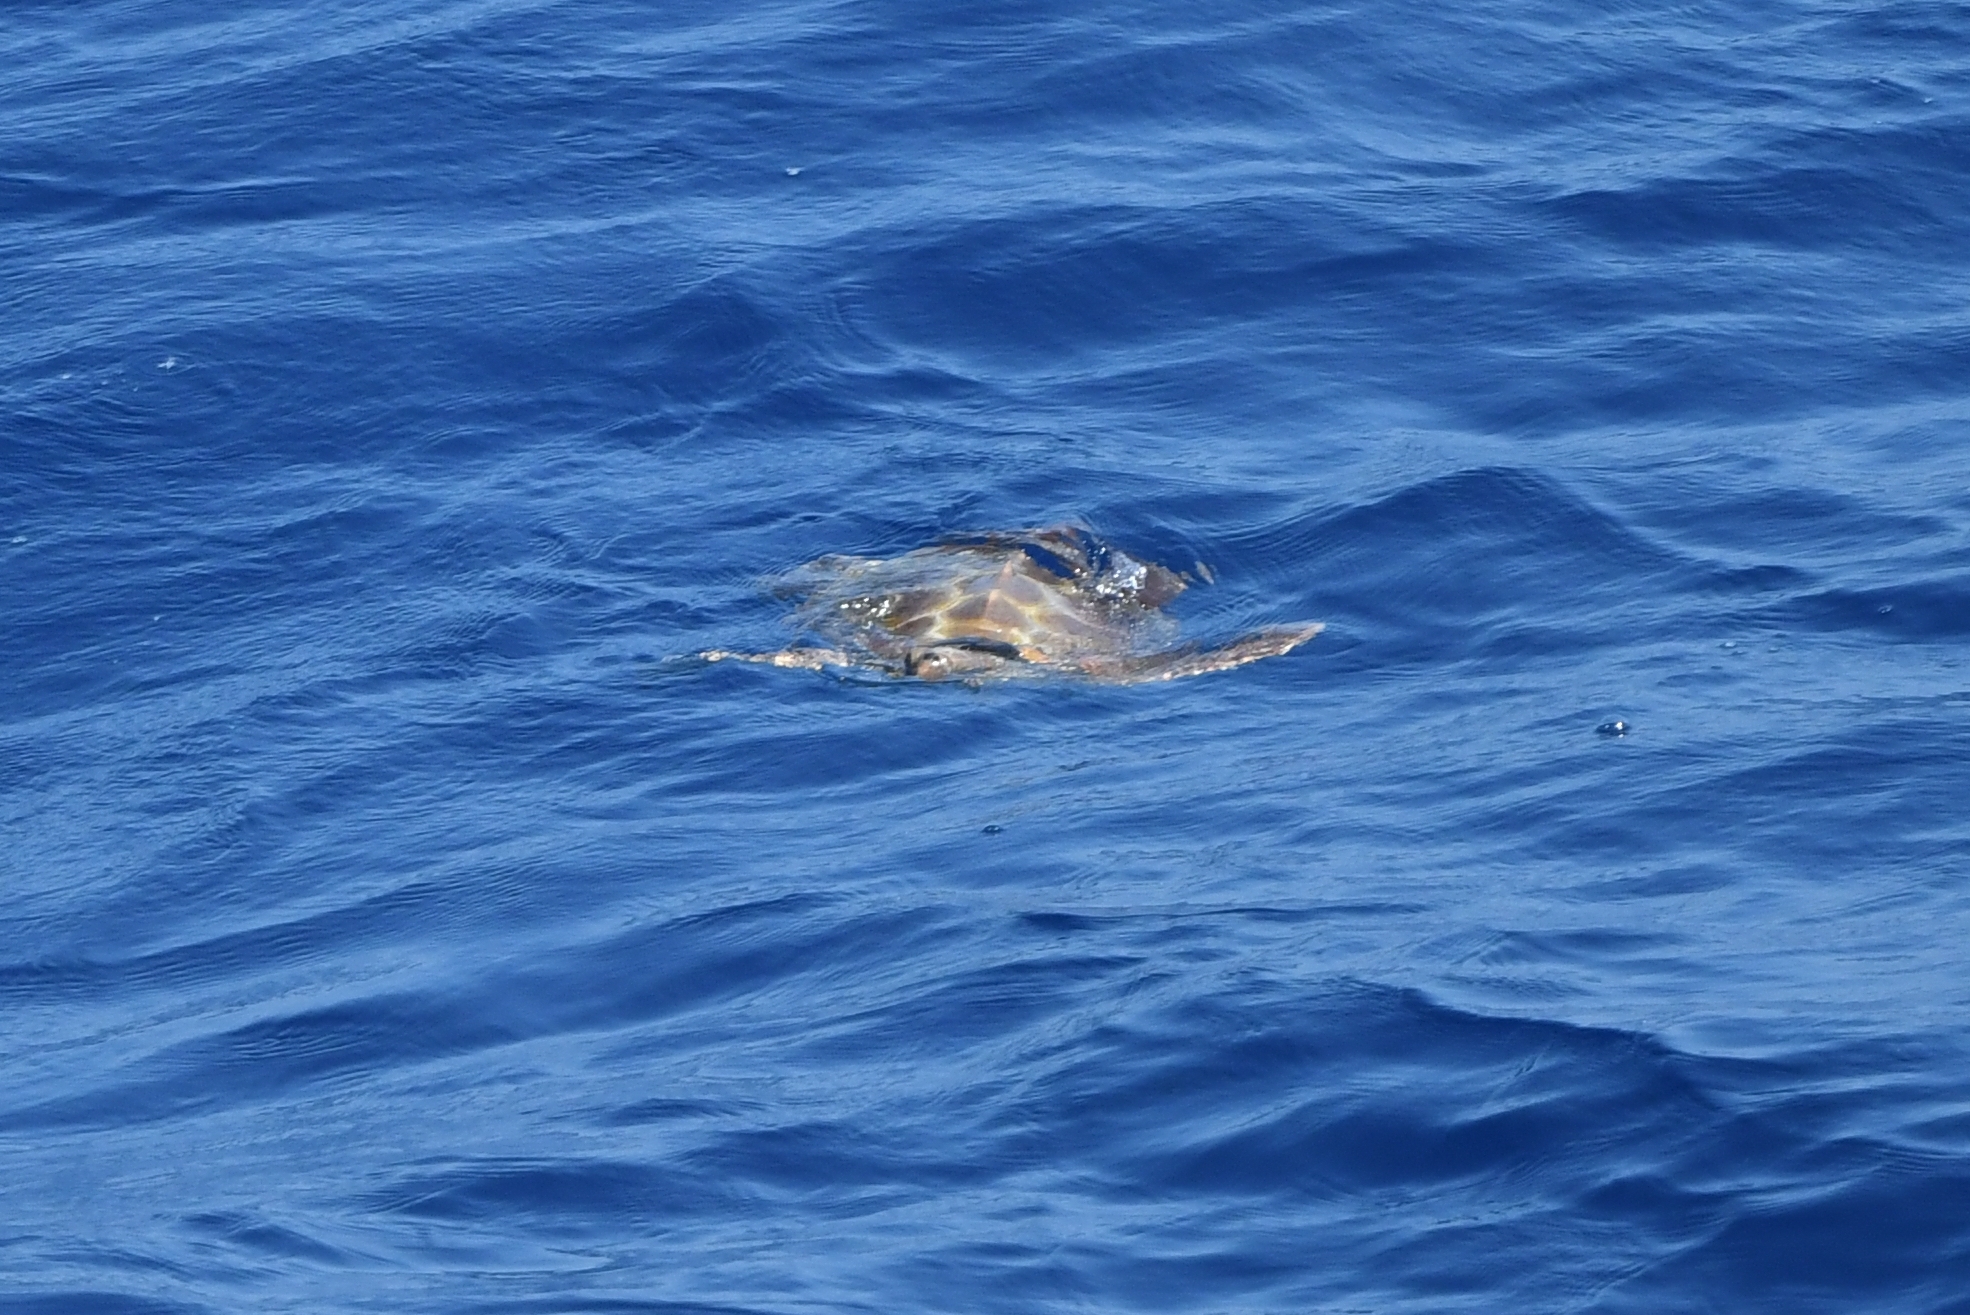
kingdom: Animalia
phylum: Chordata
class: Testudines
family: Cheloniidae
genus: Caretta
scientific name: Caretta caretta
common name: Loggerhead sea turtle
